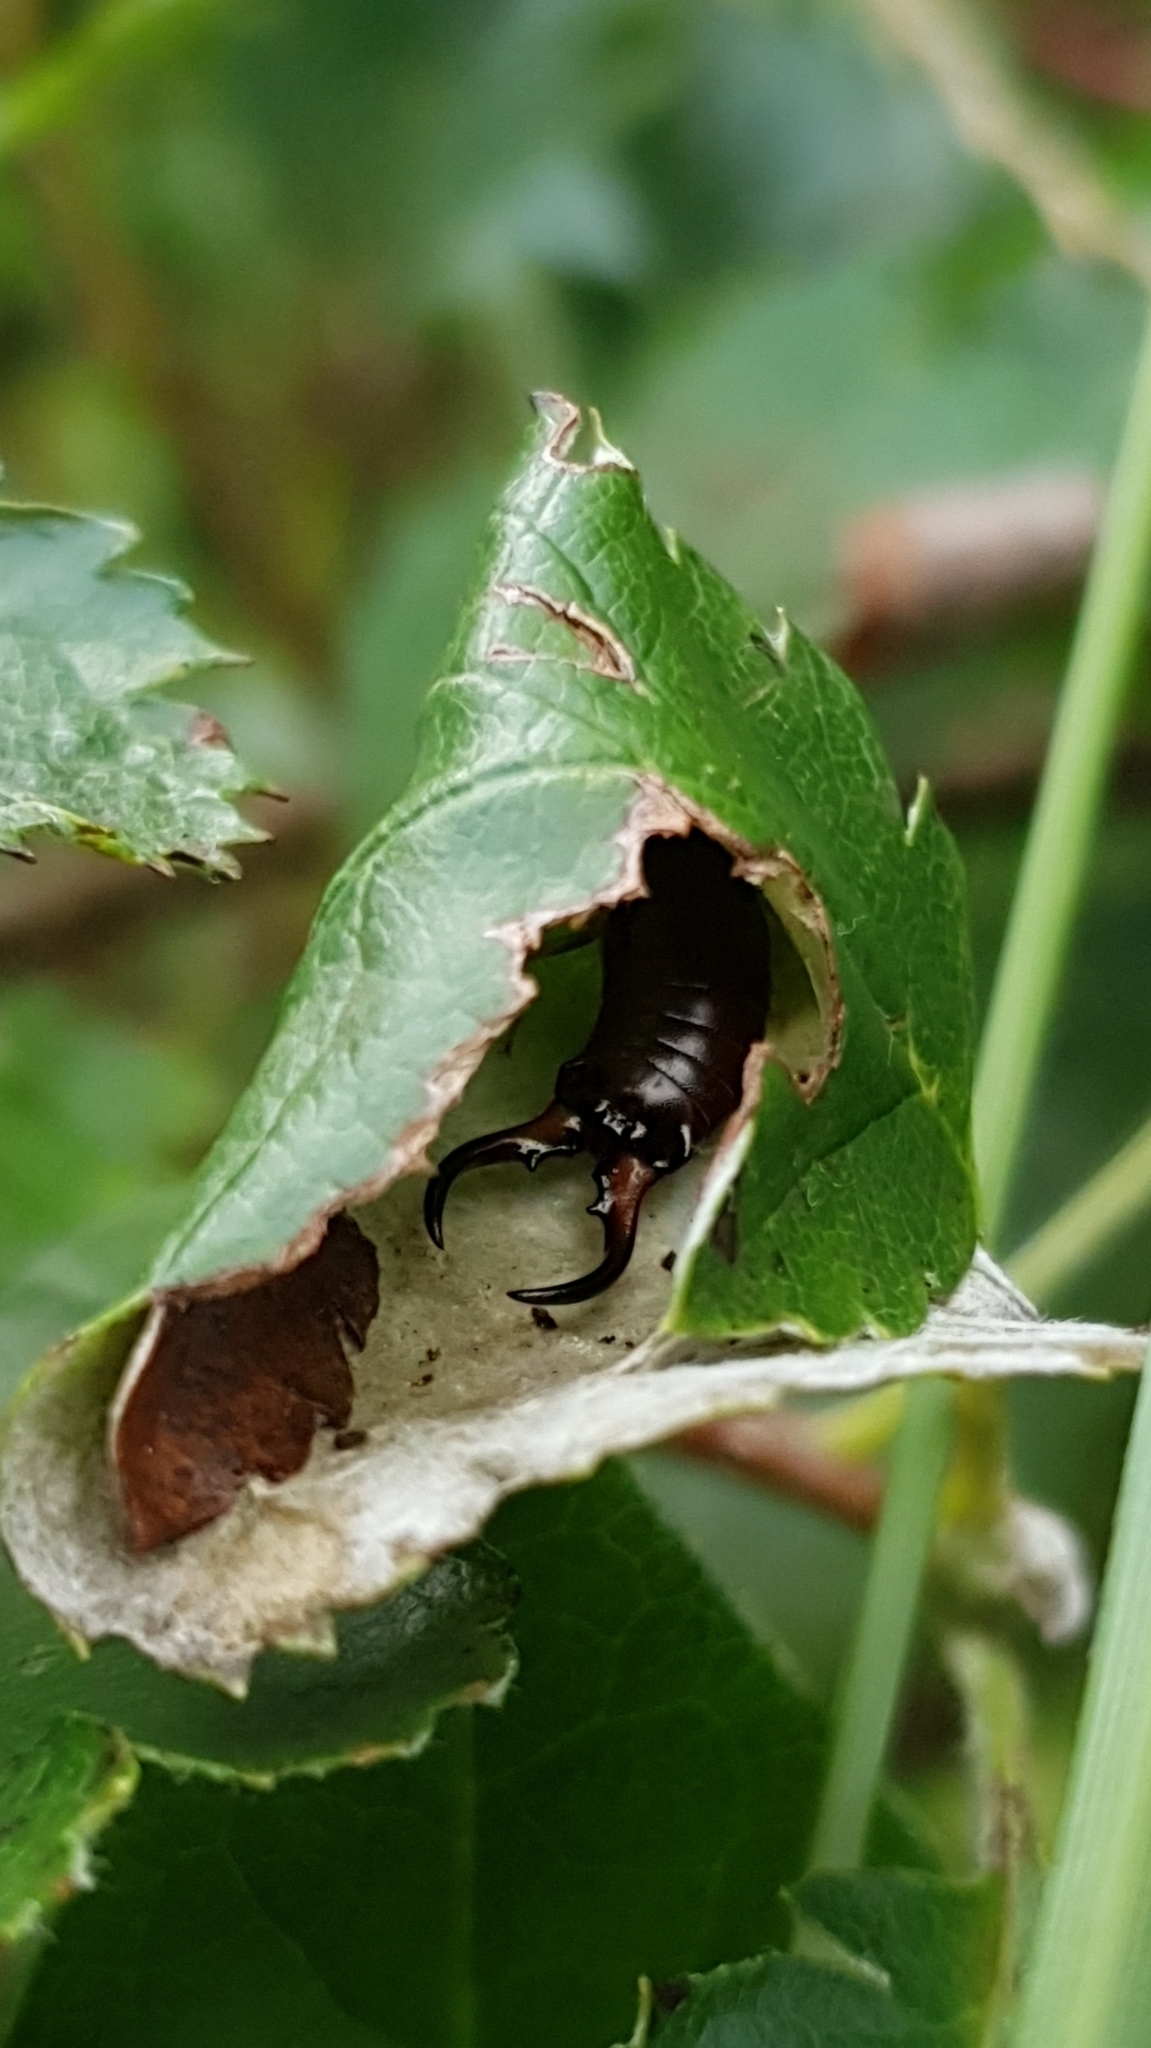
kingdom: Animalia
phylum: Arthropoda
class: Insecta
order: Dermaptera
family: Forficulidae
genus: Forficula
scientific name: Forficula
